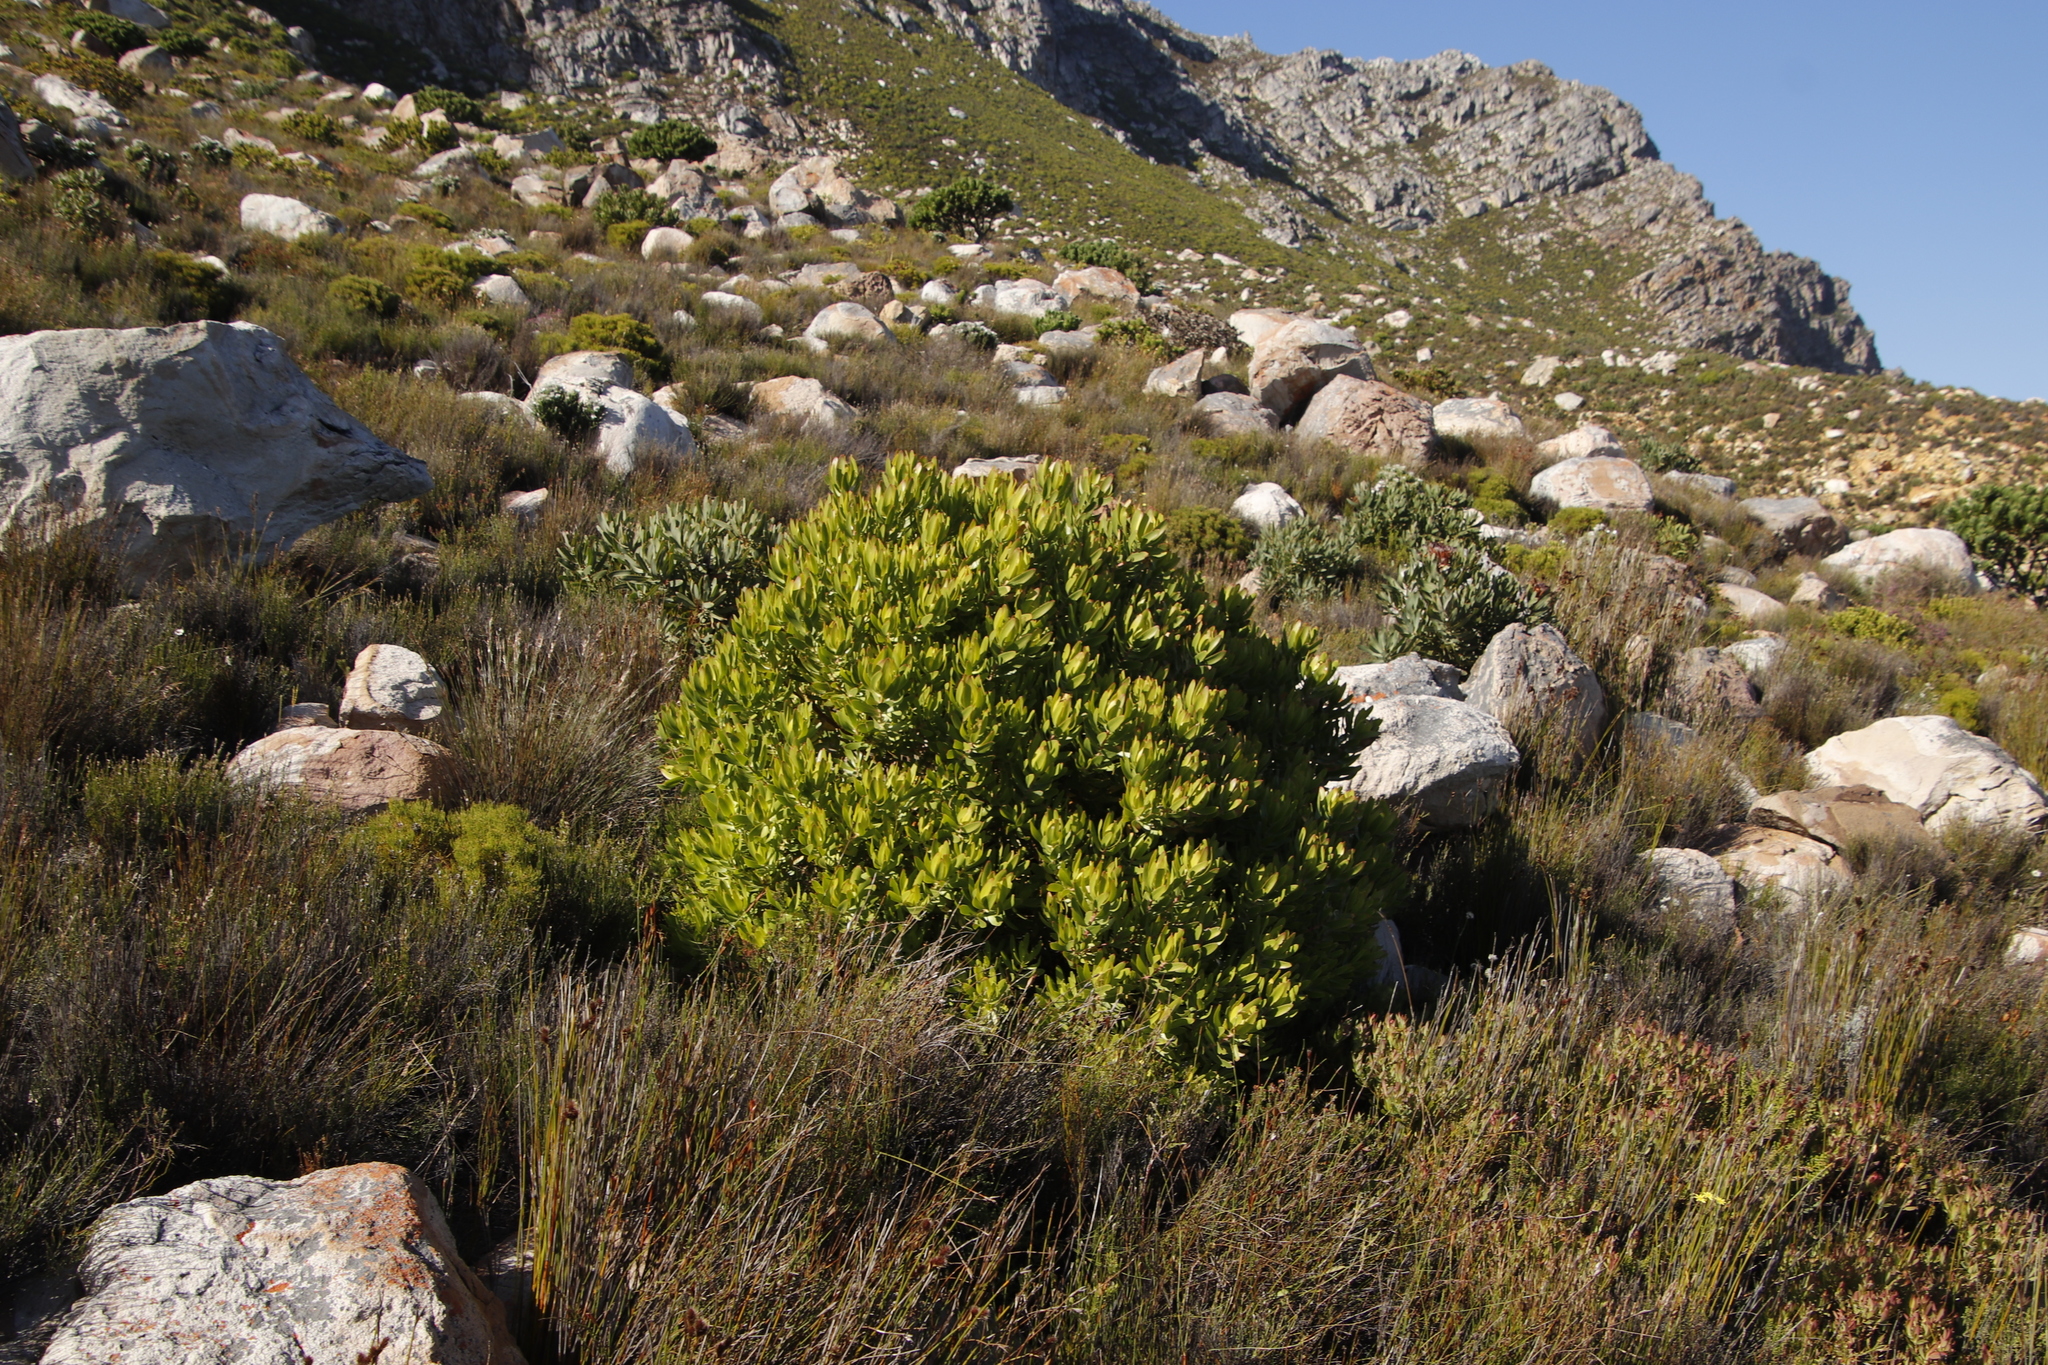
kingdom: Plantae
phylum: Tracheophyta
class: Magnoliopsida
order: Proteales
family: Proteaceae
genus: Leucadendron
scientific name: Leucadendron laureolum
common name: Golden sunshinebush
